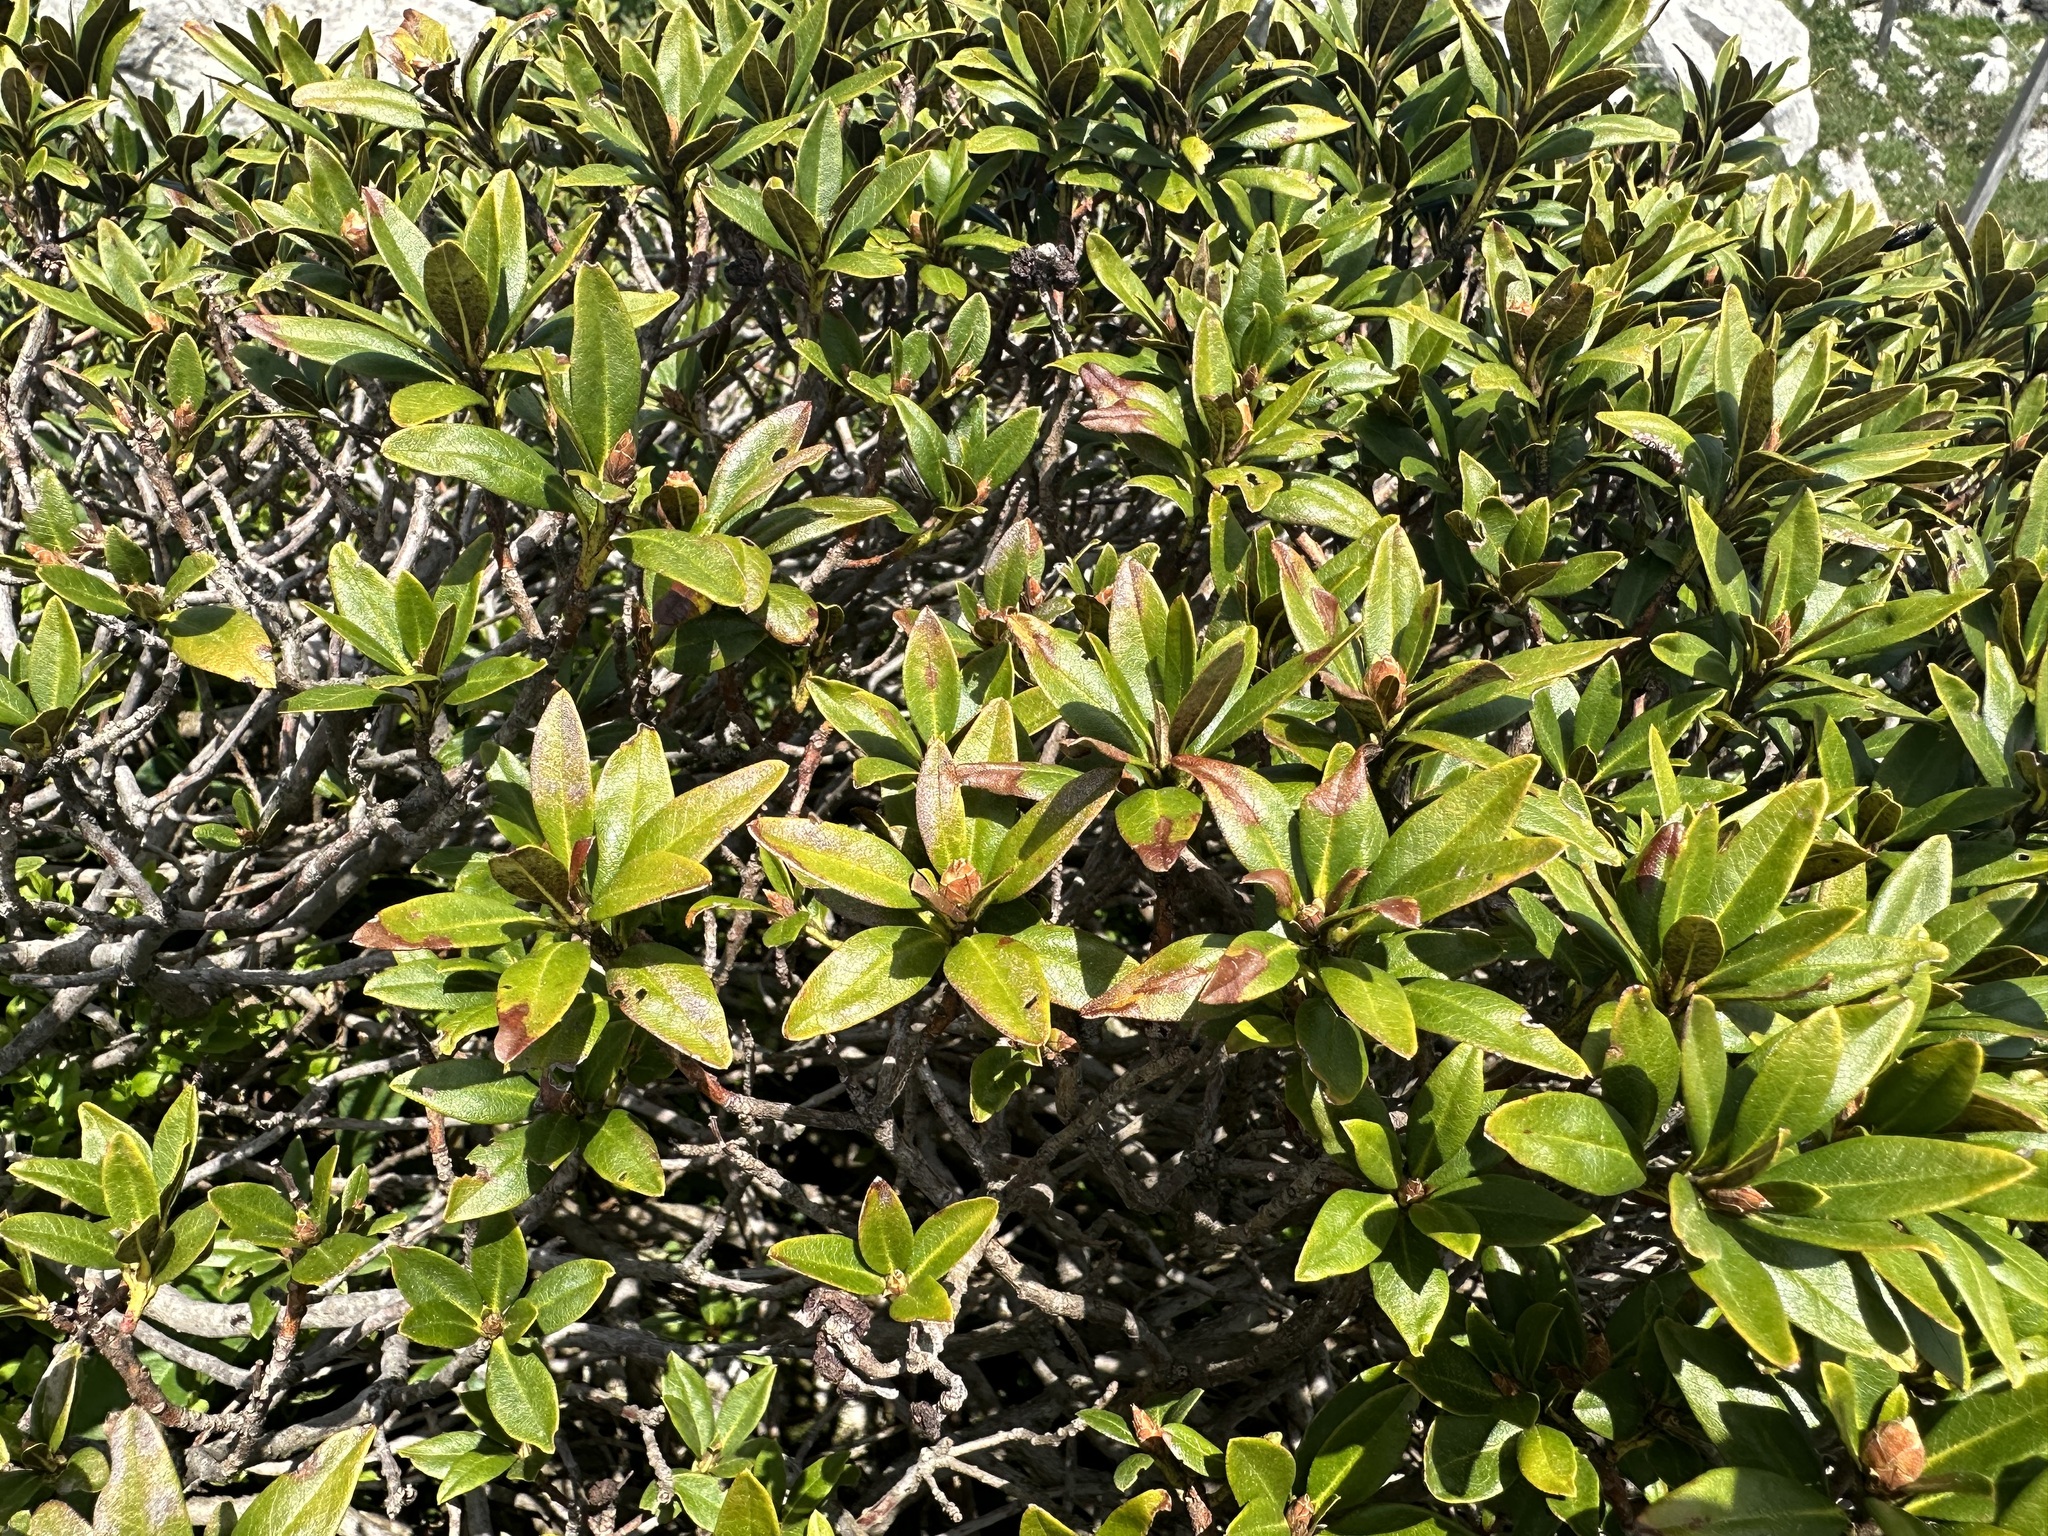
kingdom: Plantae
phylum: Tracheophyta
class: Magnoliopsida
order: Ericales
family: Ericaceae
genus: Rhododendron
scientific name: Rhododendron ferrugineum
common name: Alpenrose
